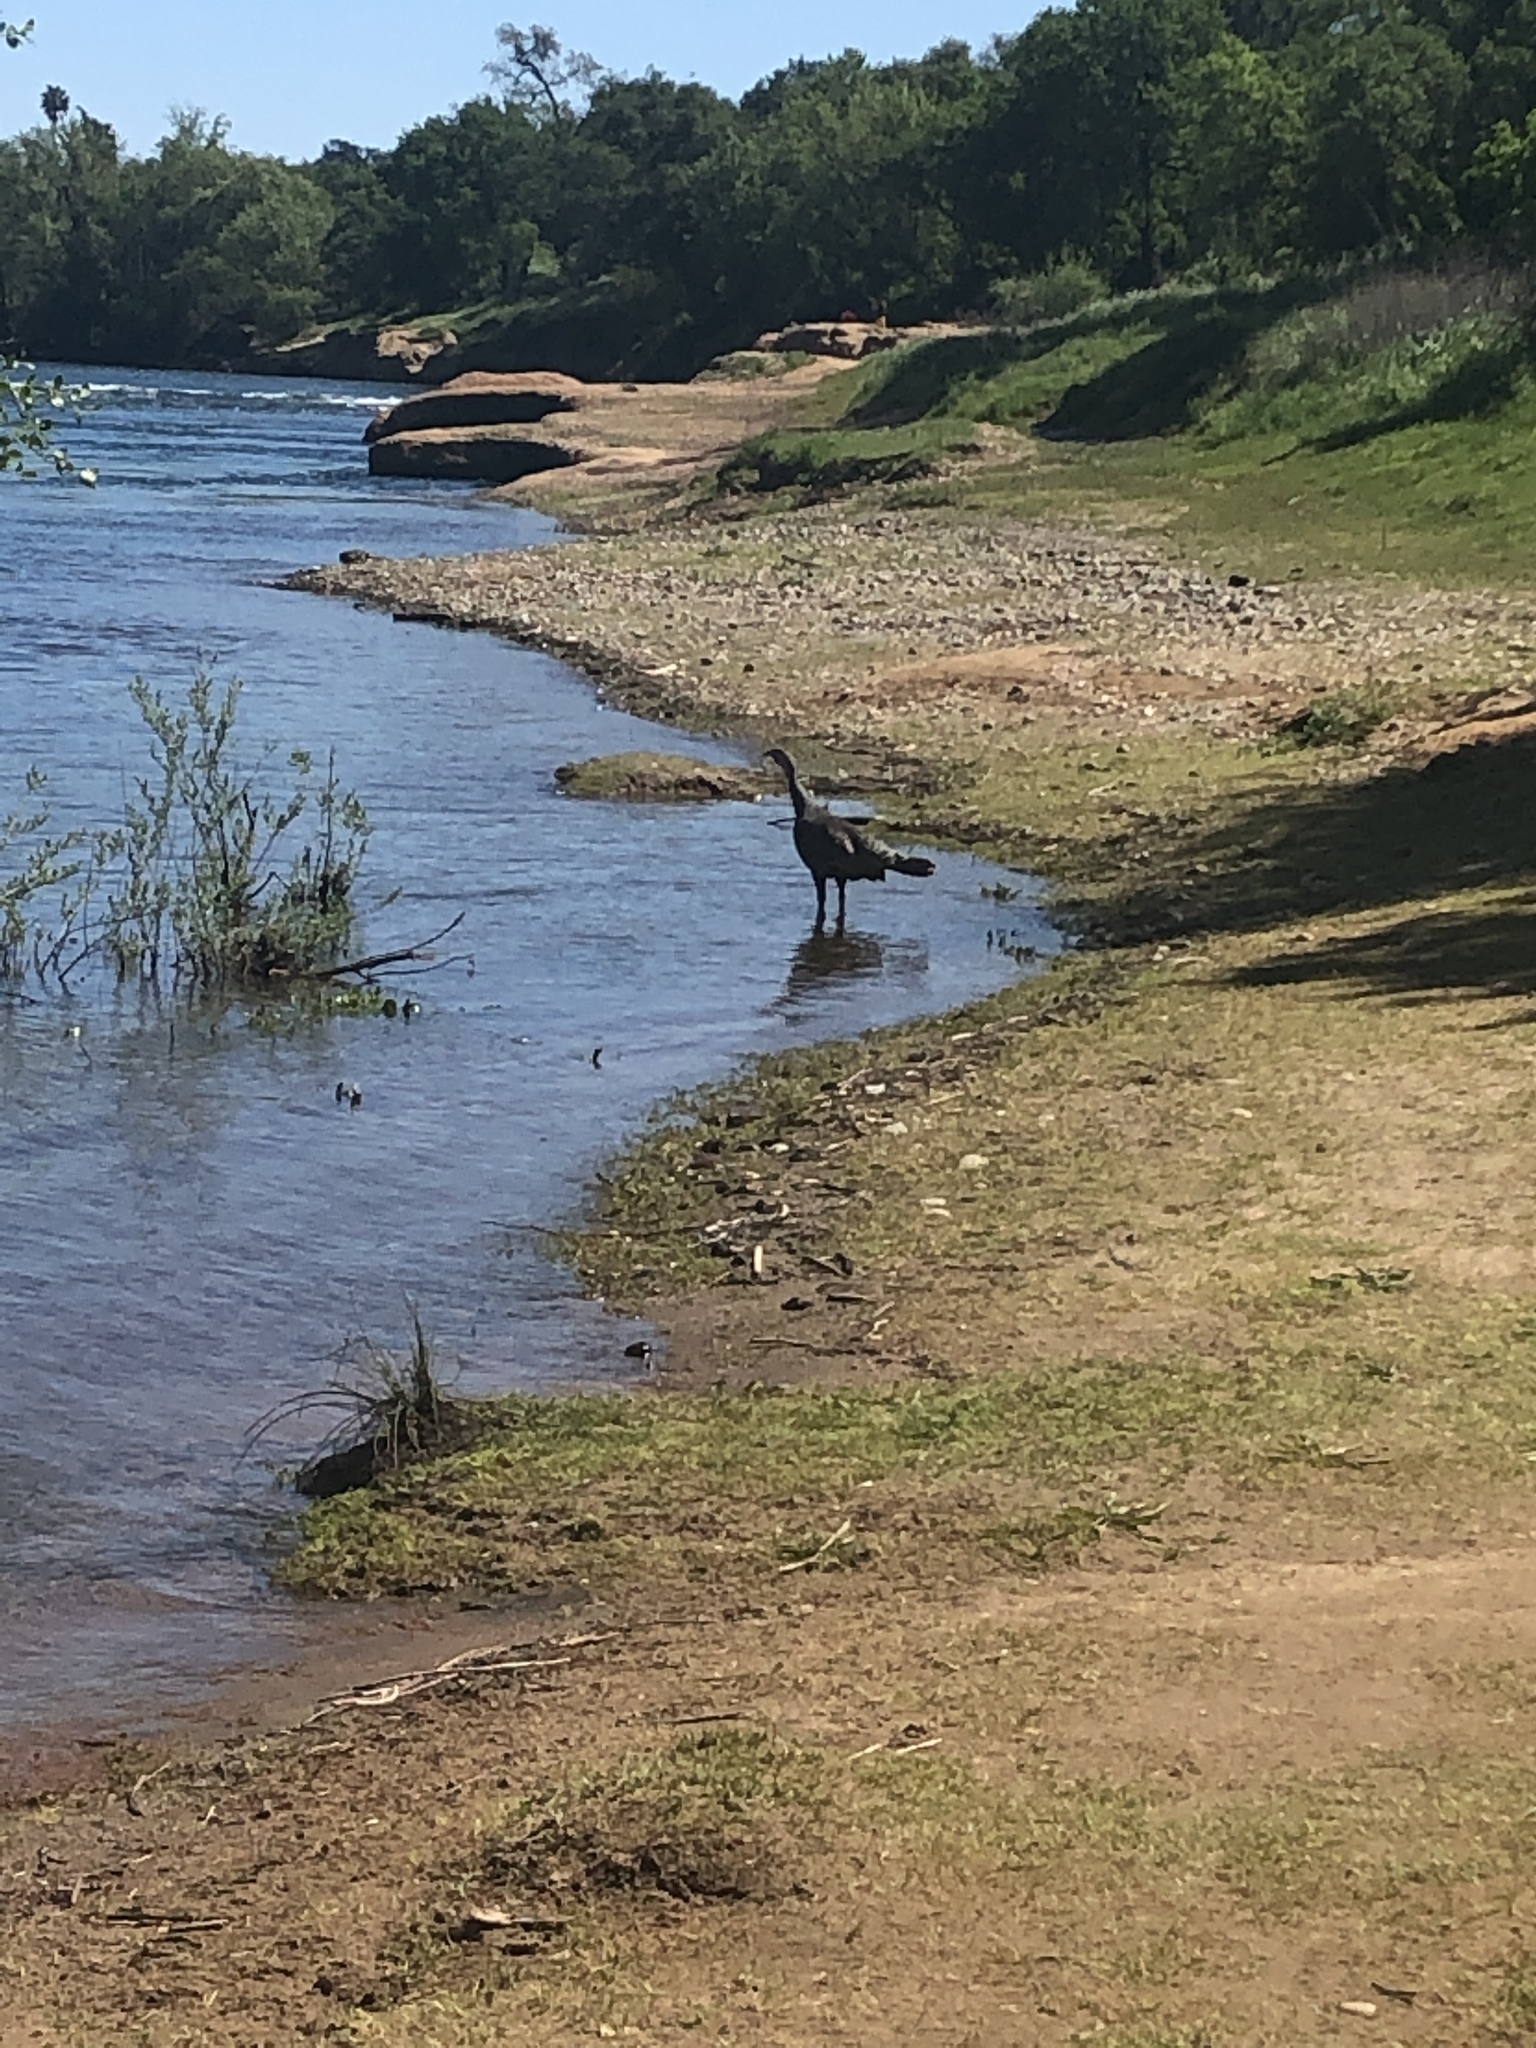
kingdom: Animalia
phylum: Chordata
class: Aves
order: Galliformes
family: Phasianidae
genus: Meleagris
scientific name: Meleagris gallopavo
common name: Wild turkey
